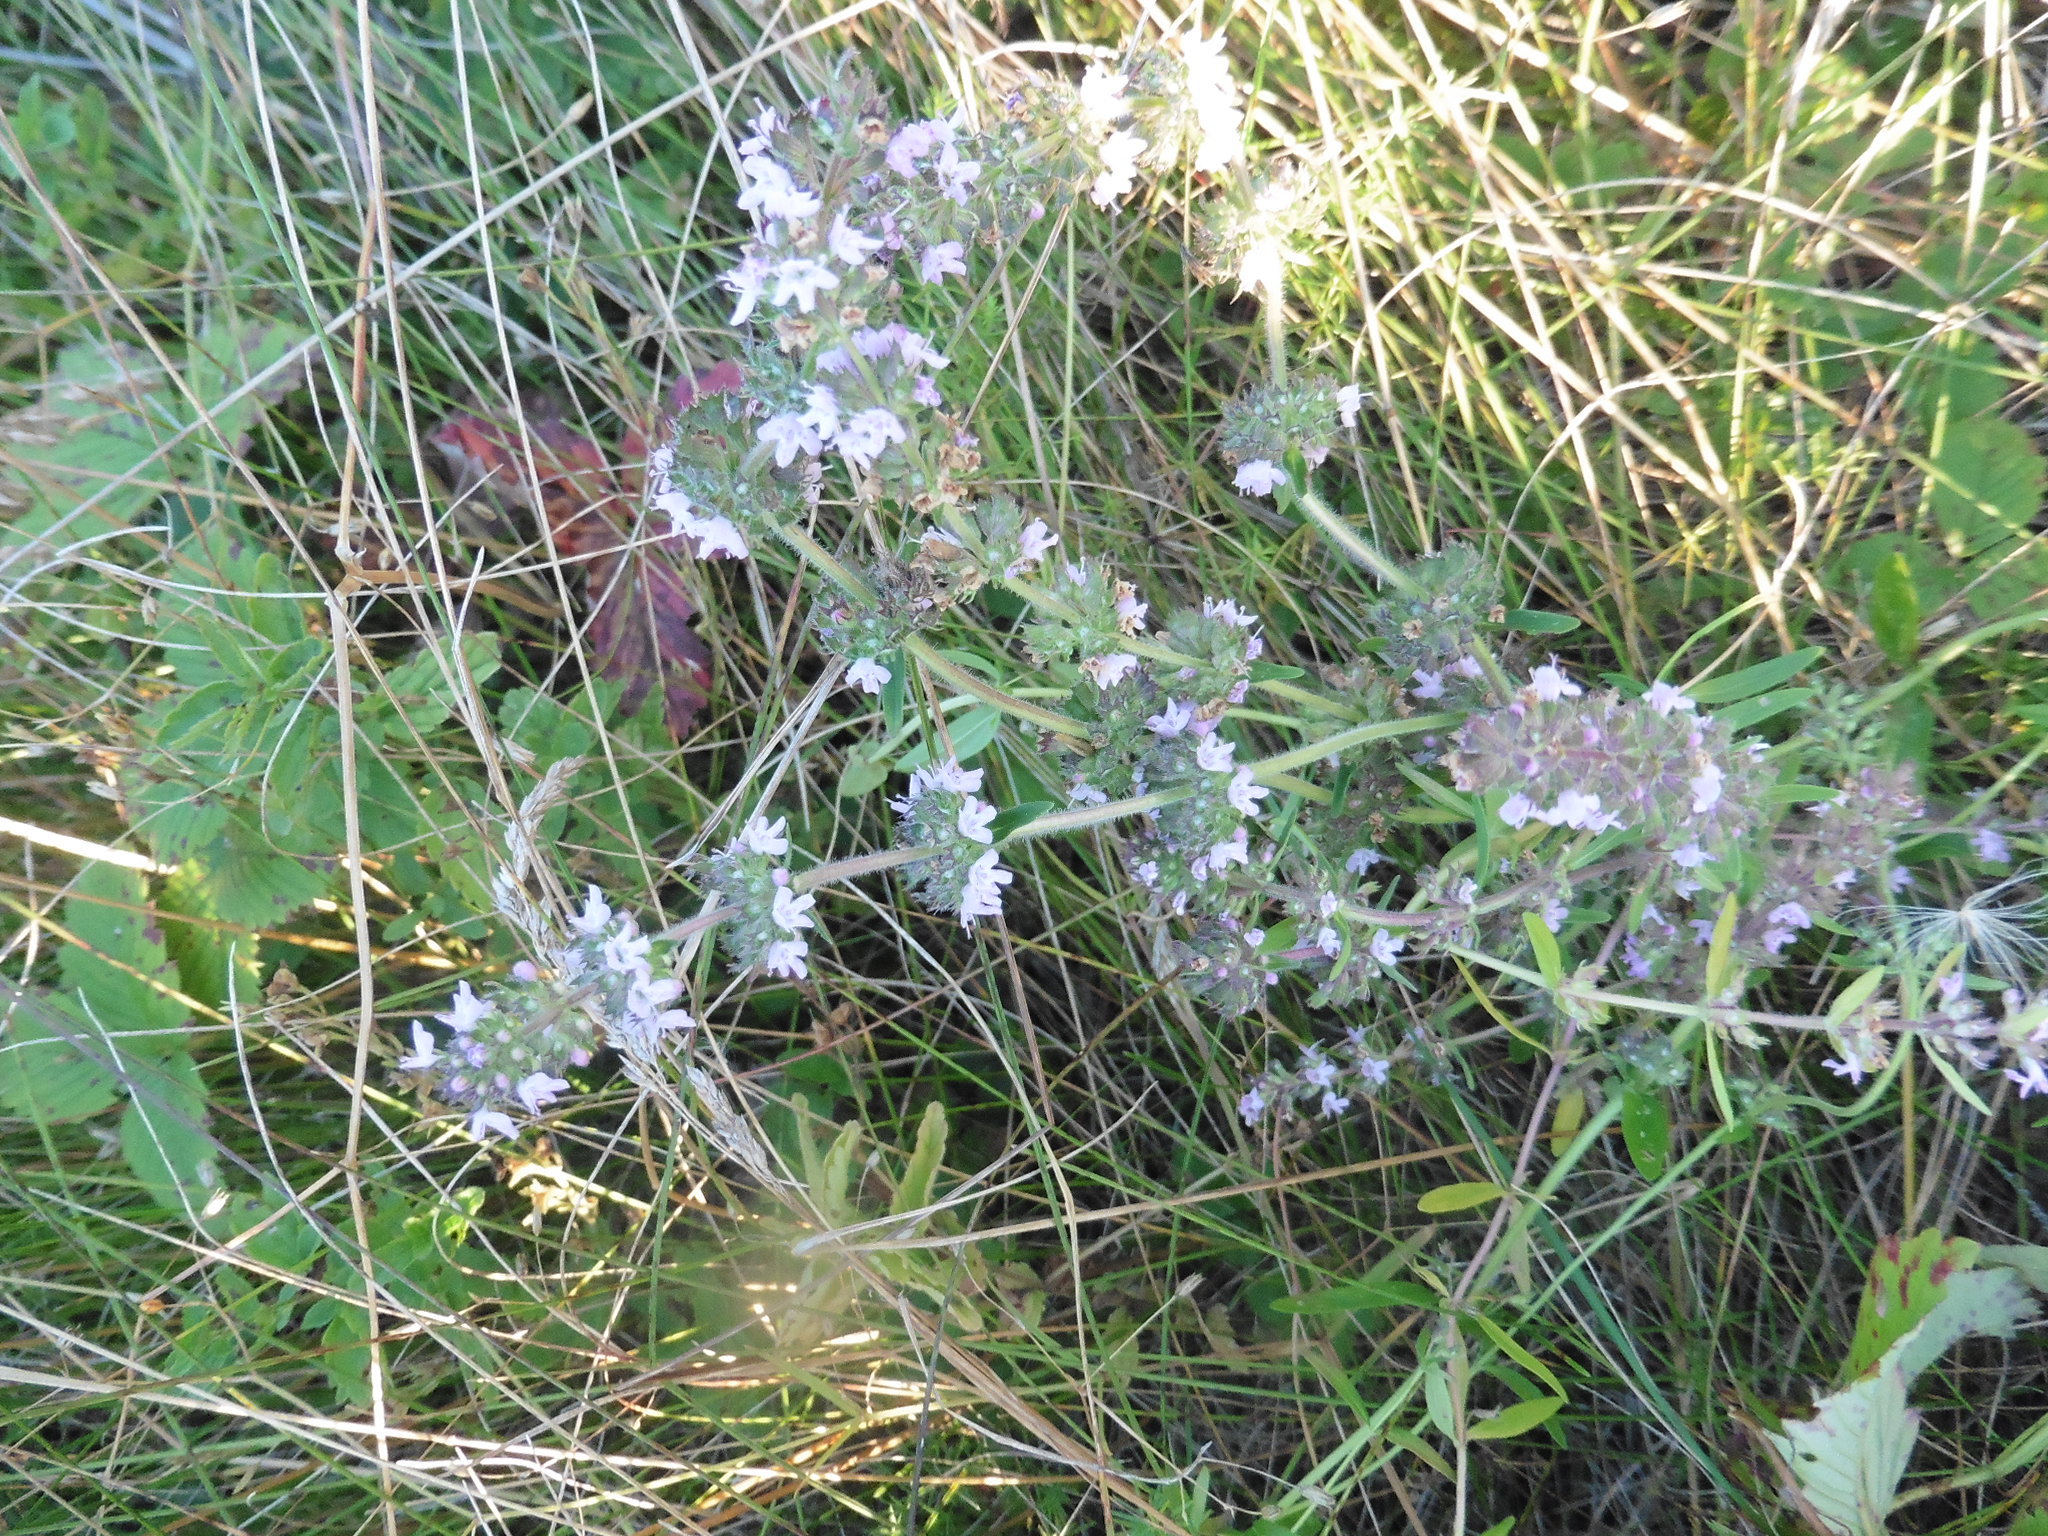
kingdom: Plantae
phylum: Tracheophyta
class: Magnoliopsida
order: Lamiales
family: Lamiaceae
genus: Thymus
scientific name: Thymus pannonicus
